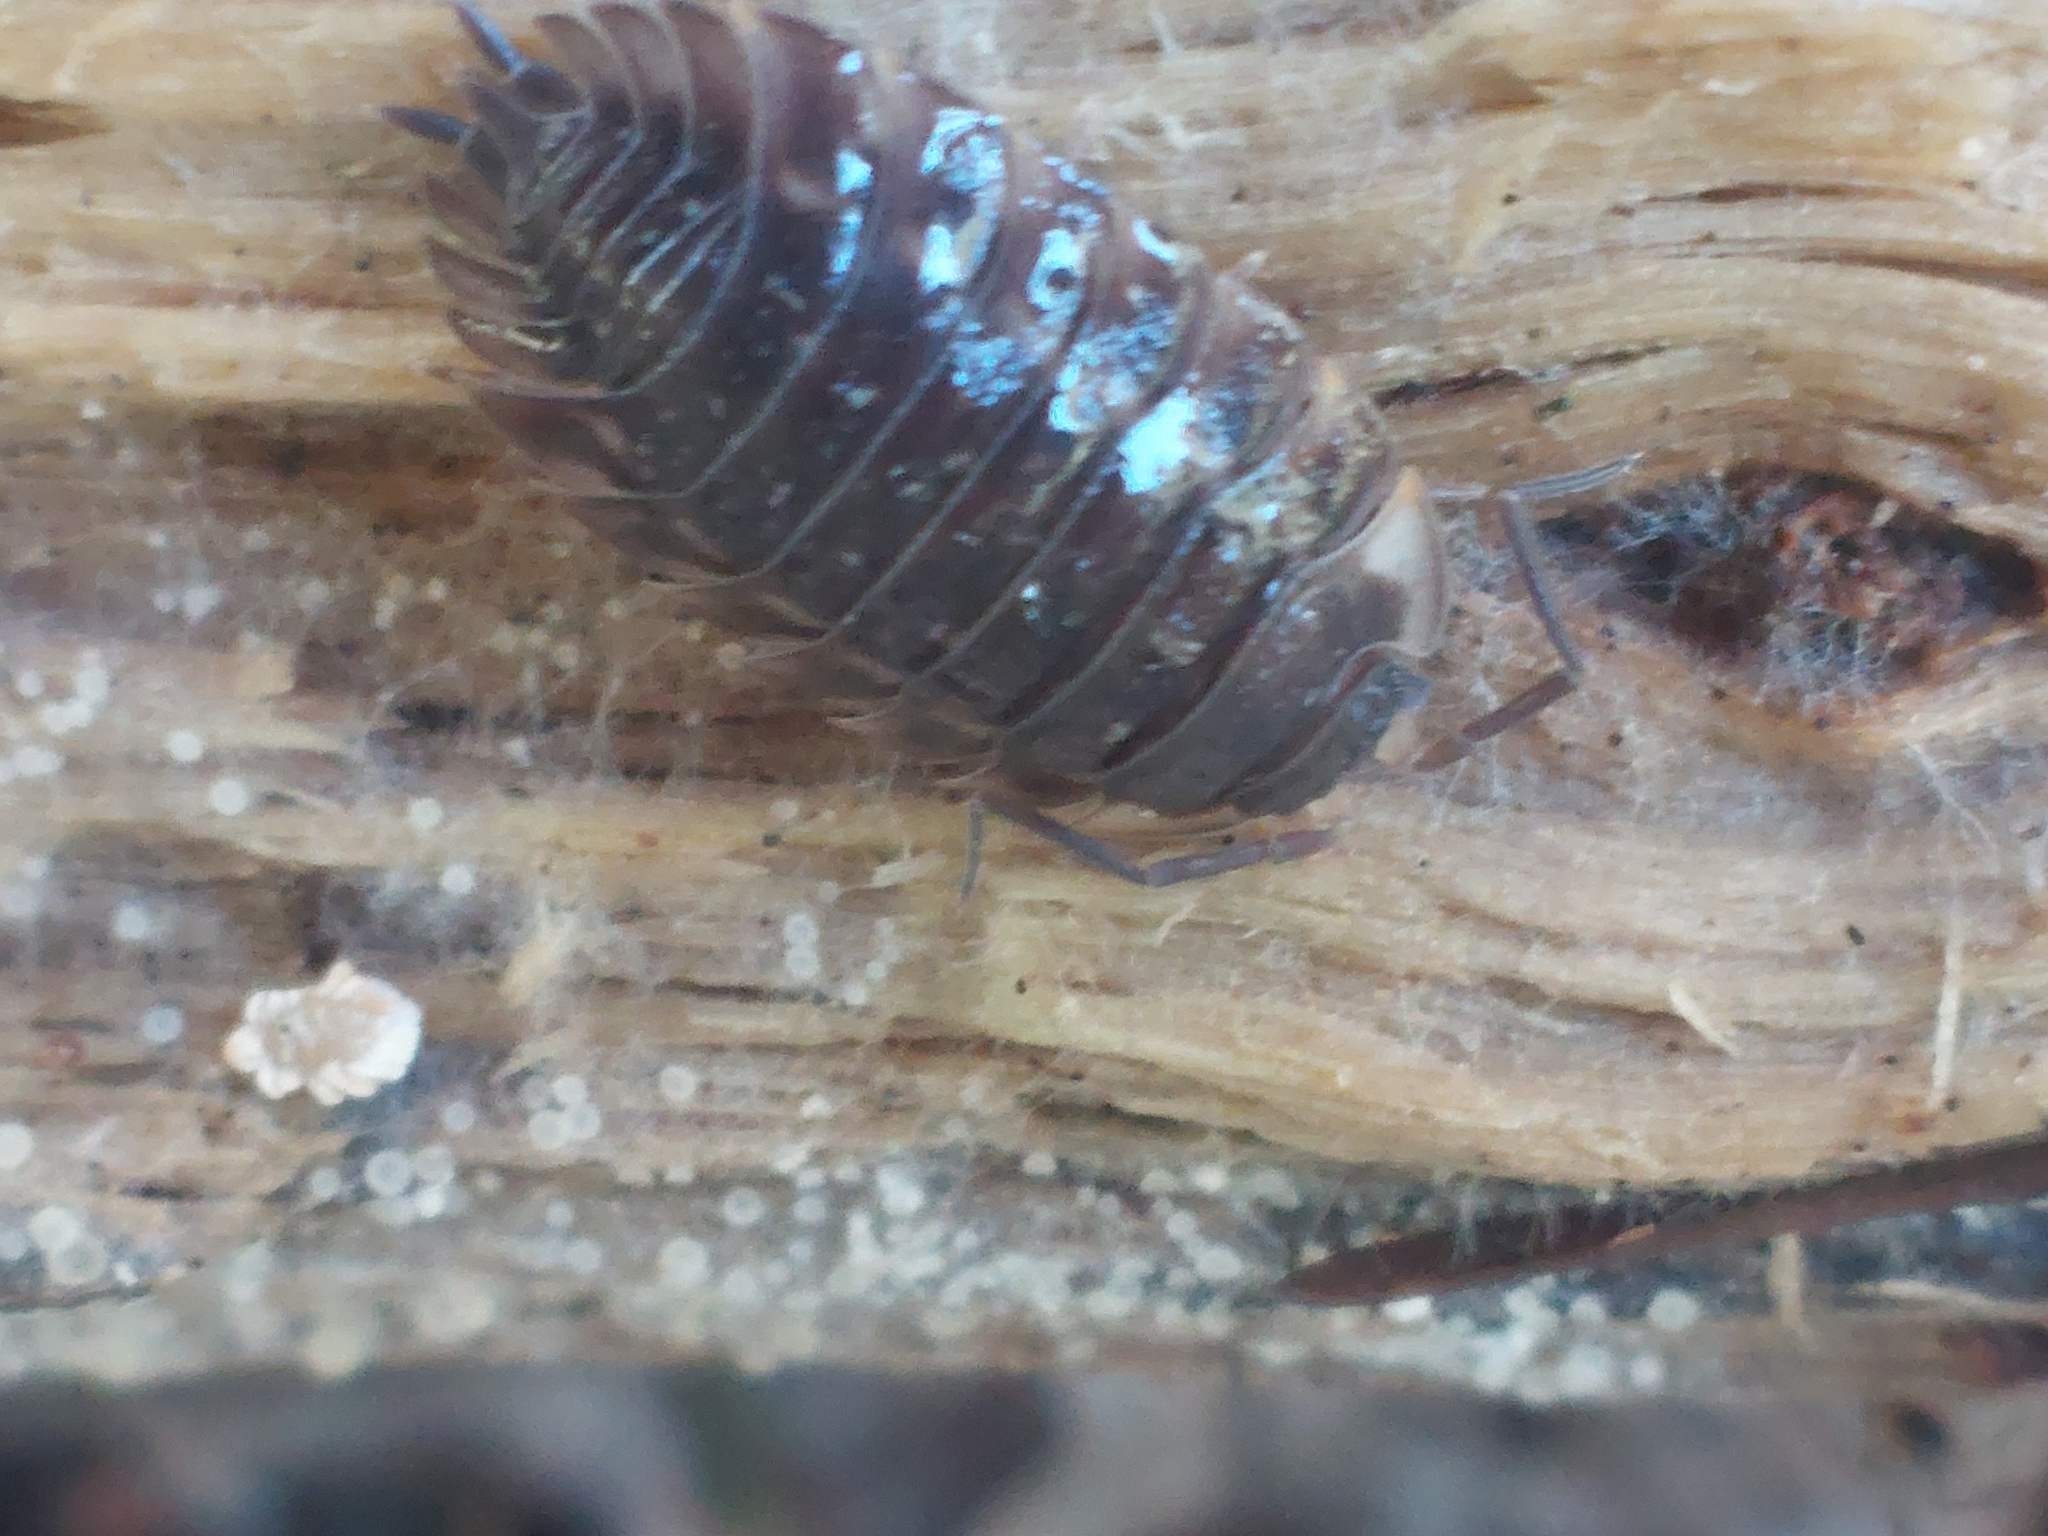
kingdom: Animalia
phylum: Arthropoda
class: Malacostraca
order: Isopoda
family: Oniscidae
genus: Oniscus
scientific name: Oniscus asellus
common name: Common shiny woodlouse
